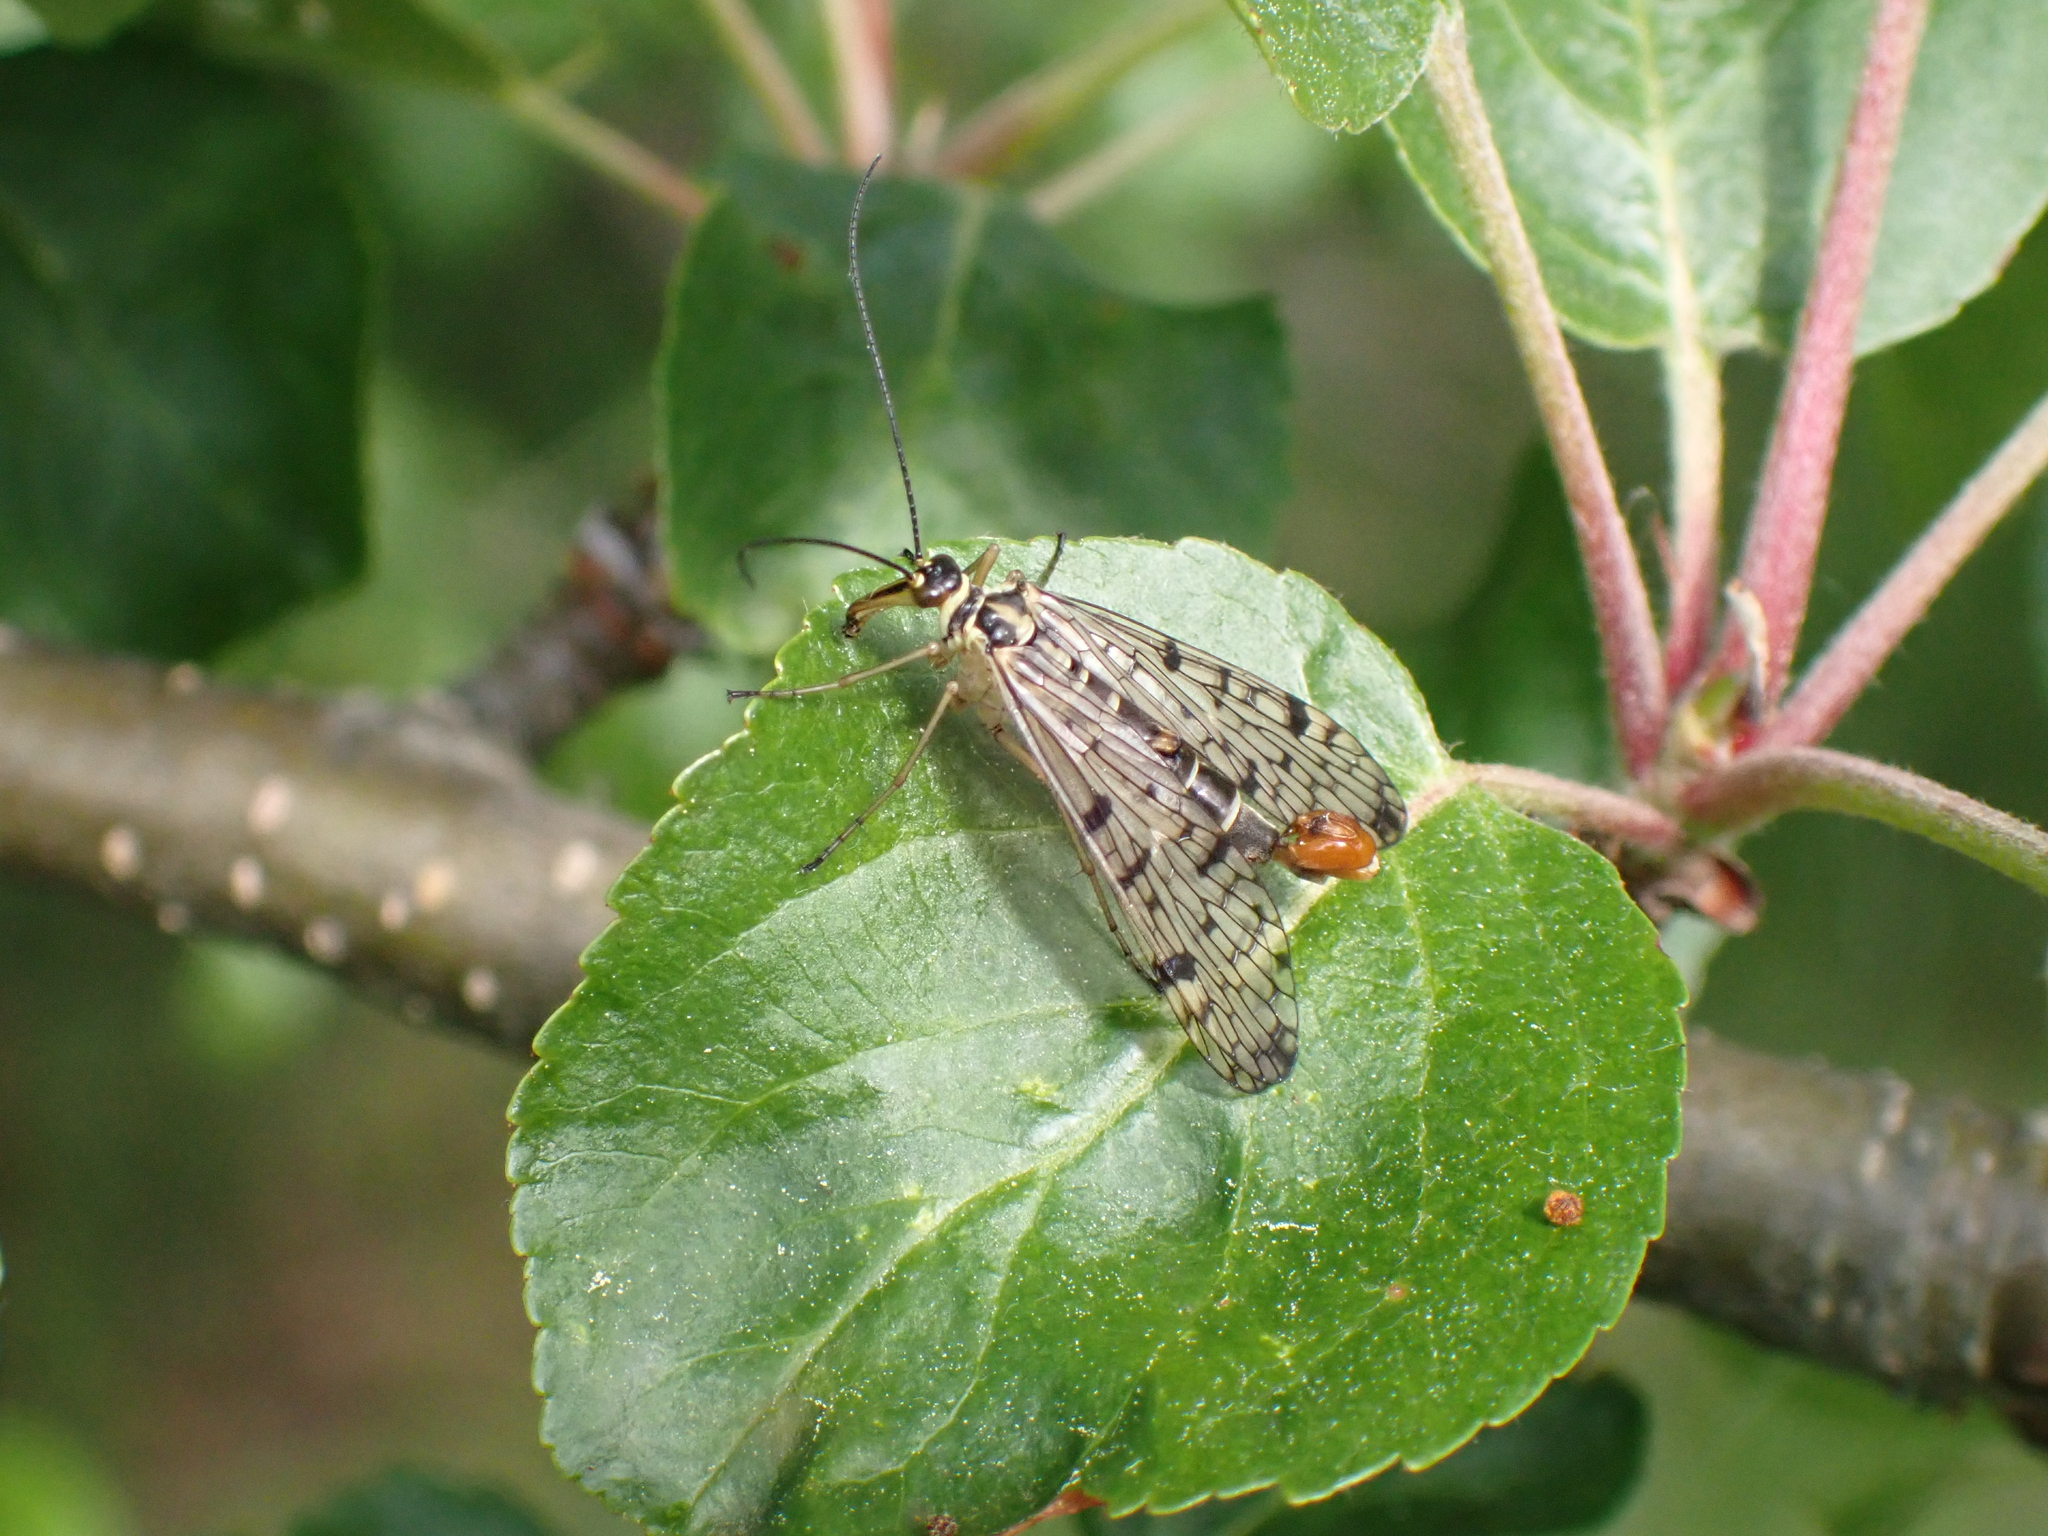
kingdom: Animalia
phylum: Arthropoda
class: Insecta
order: Mecoptera
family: Panorpidae
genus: Panorpa
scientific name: Panorpa hybrida
